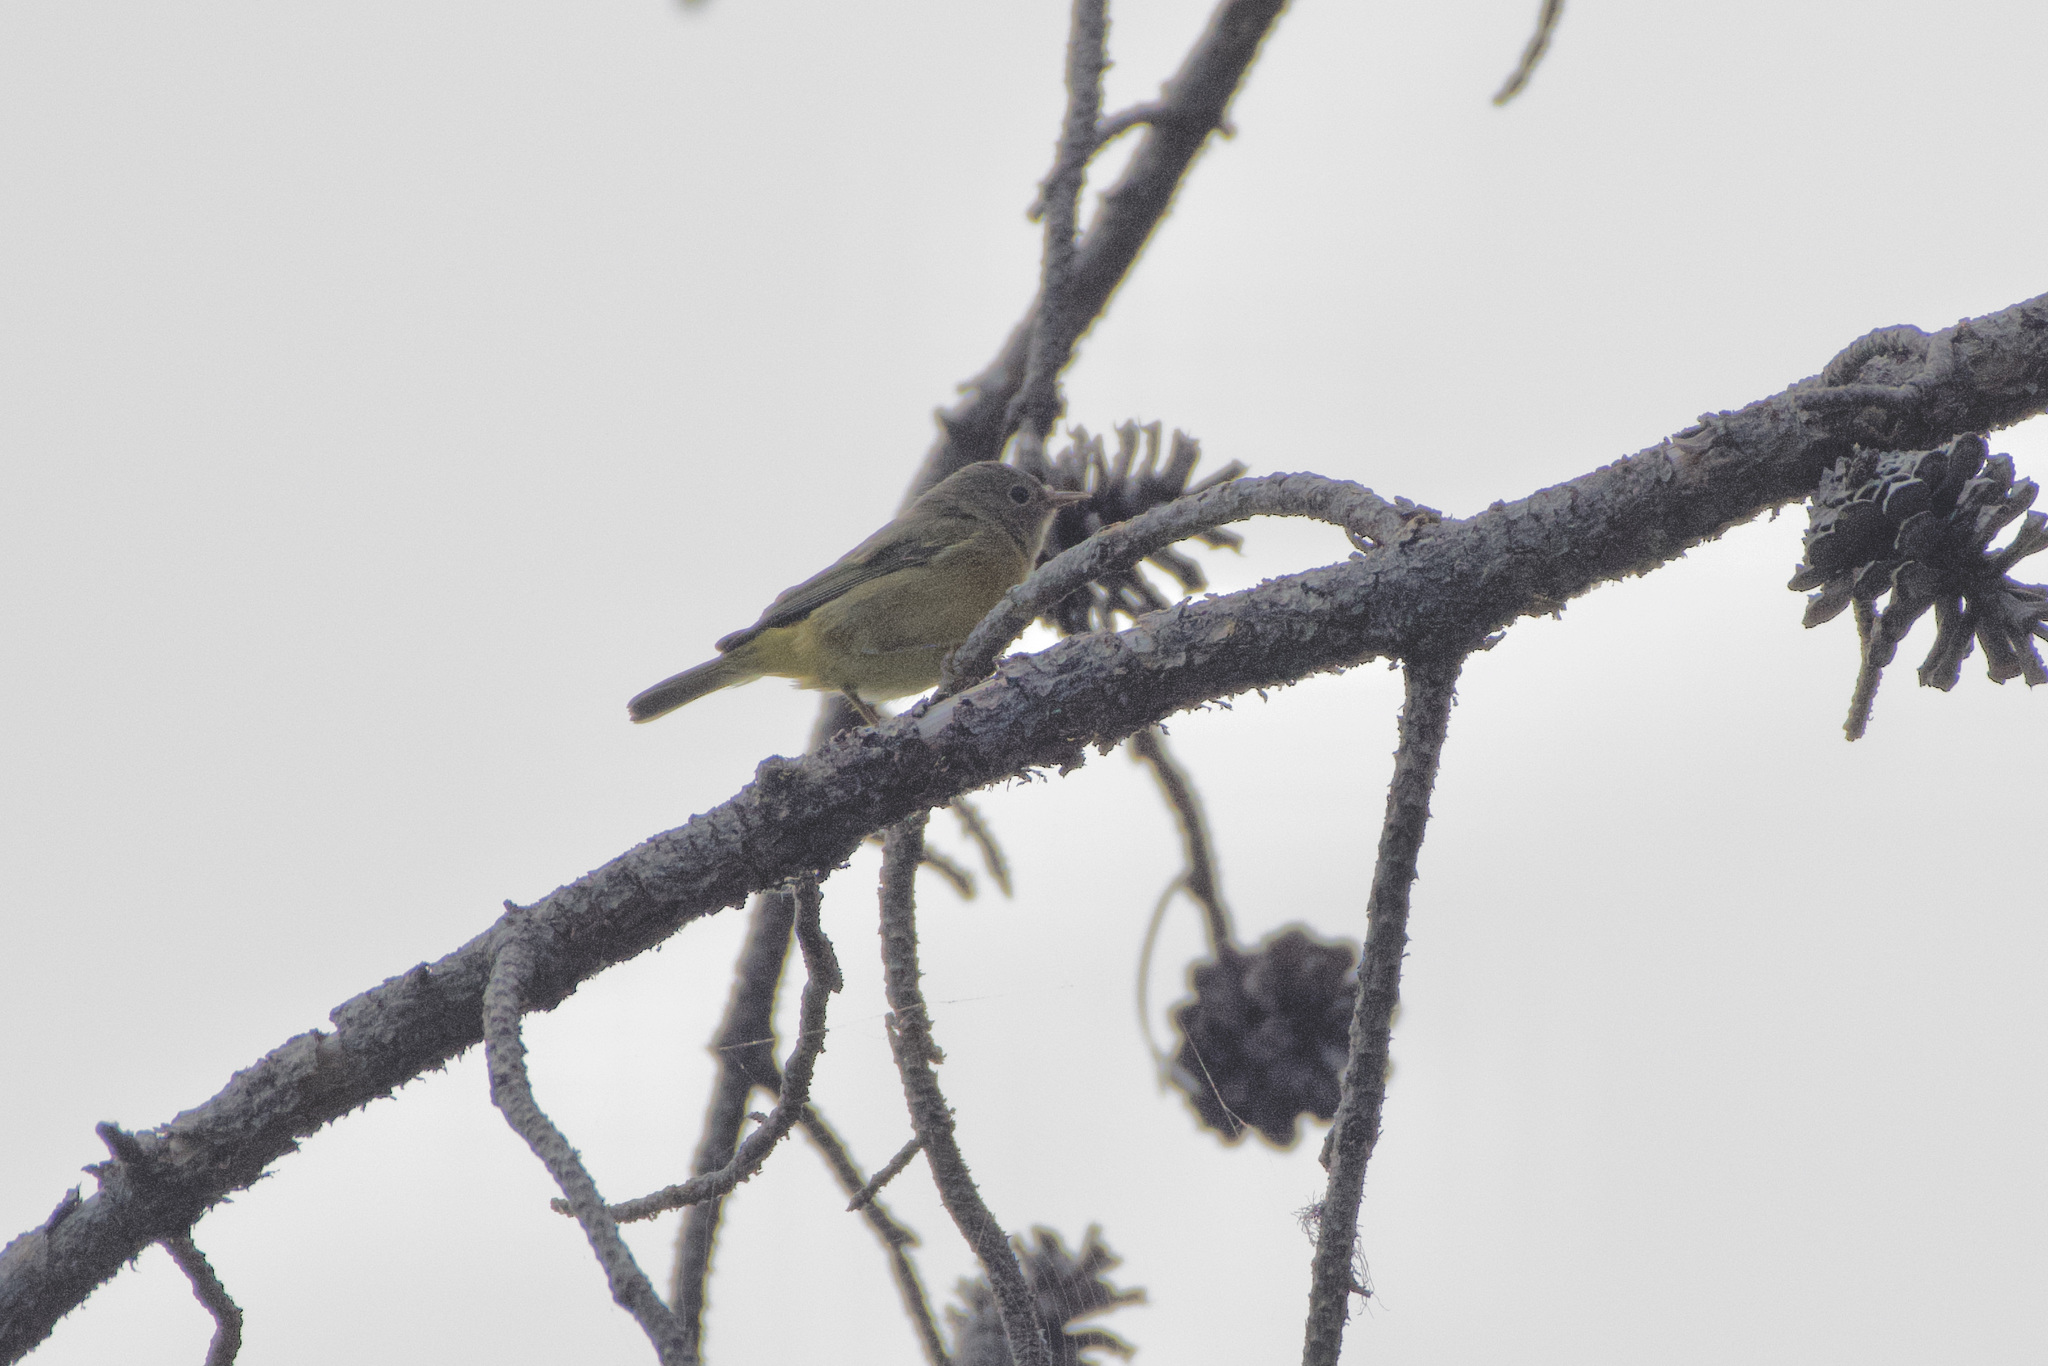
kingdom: Animalia
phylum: Chordata
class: Aves
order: Passeriformes
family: Parulidae
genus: Leiothlypis
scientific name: Leiothlypis ruficapilla
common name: Nashville warbler
